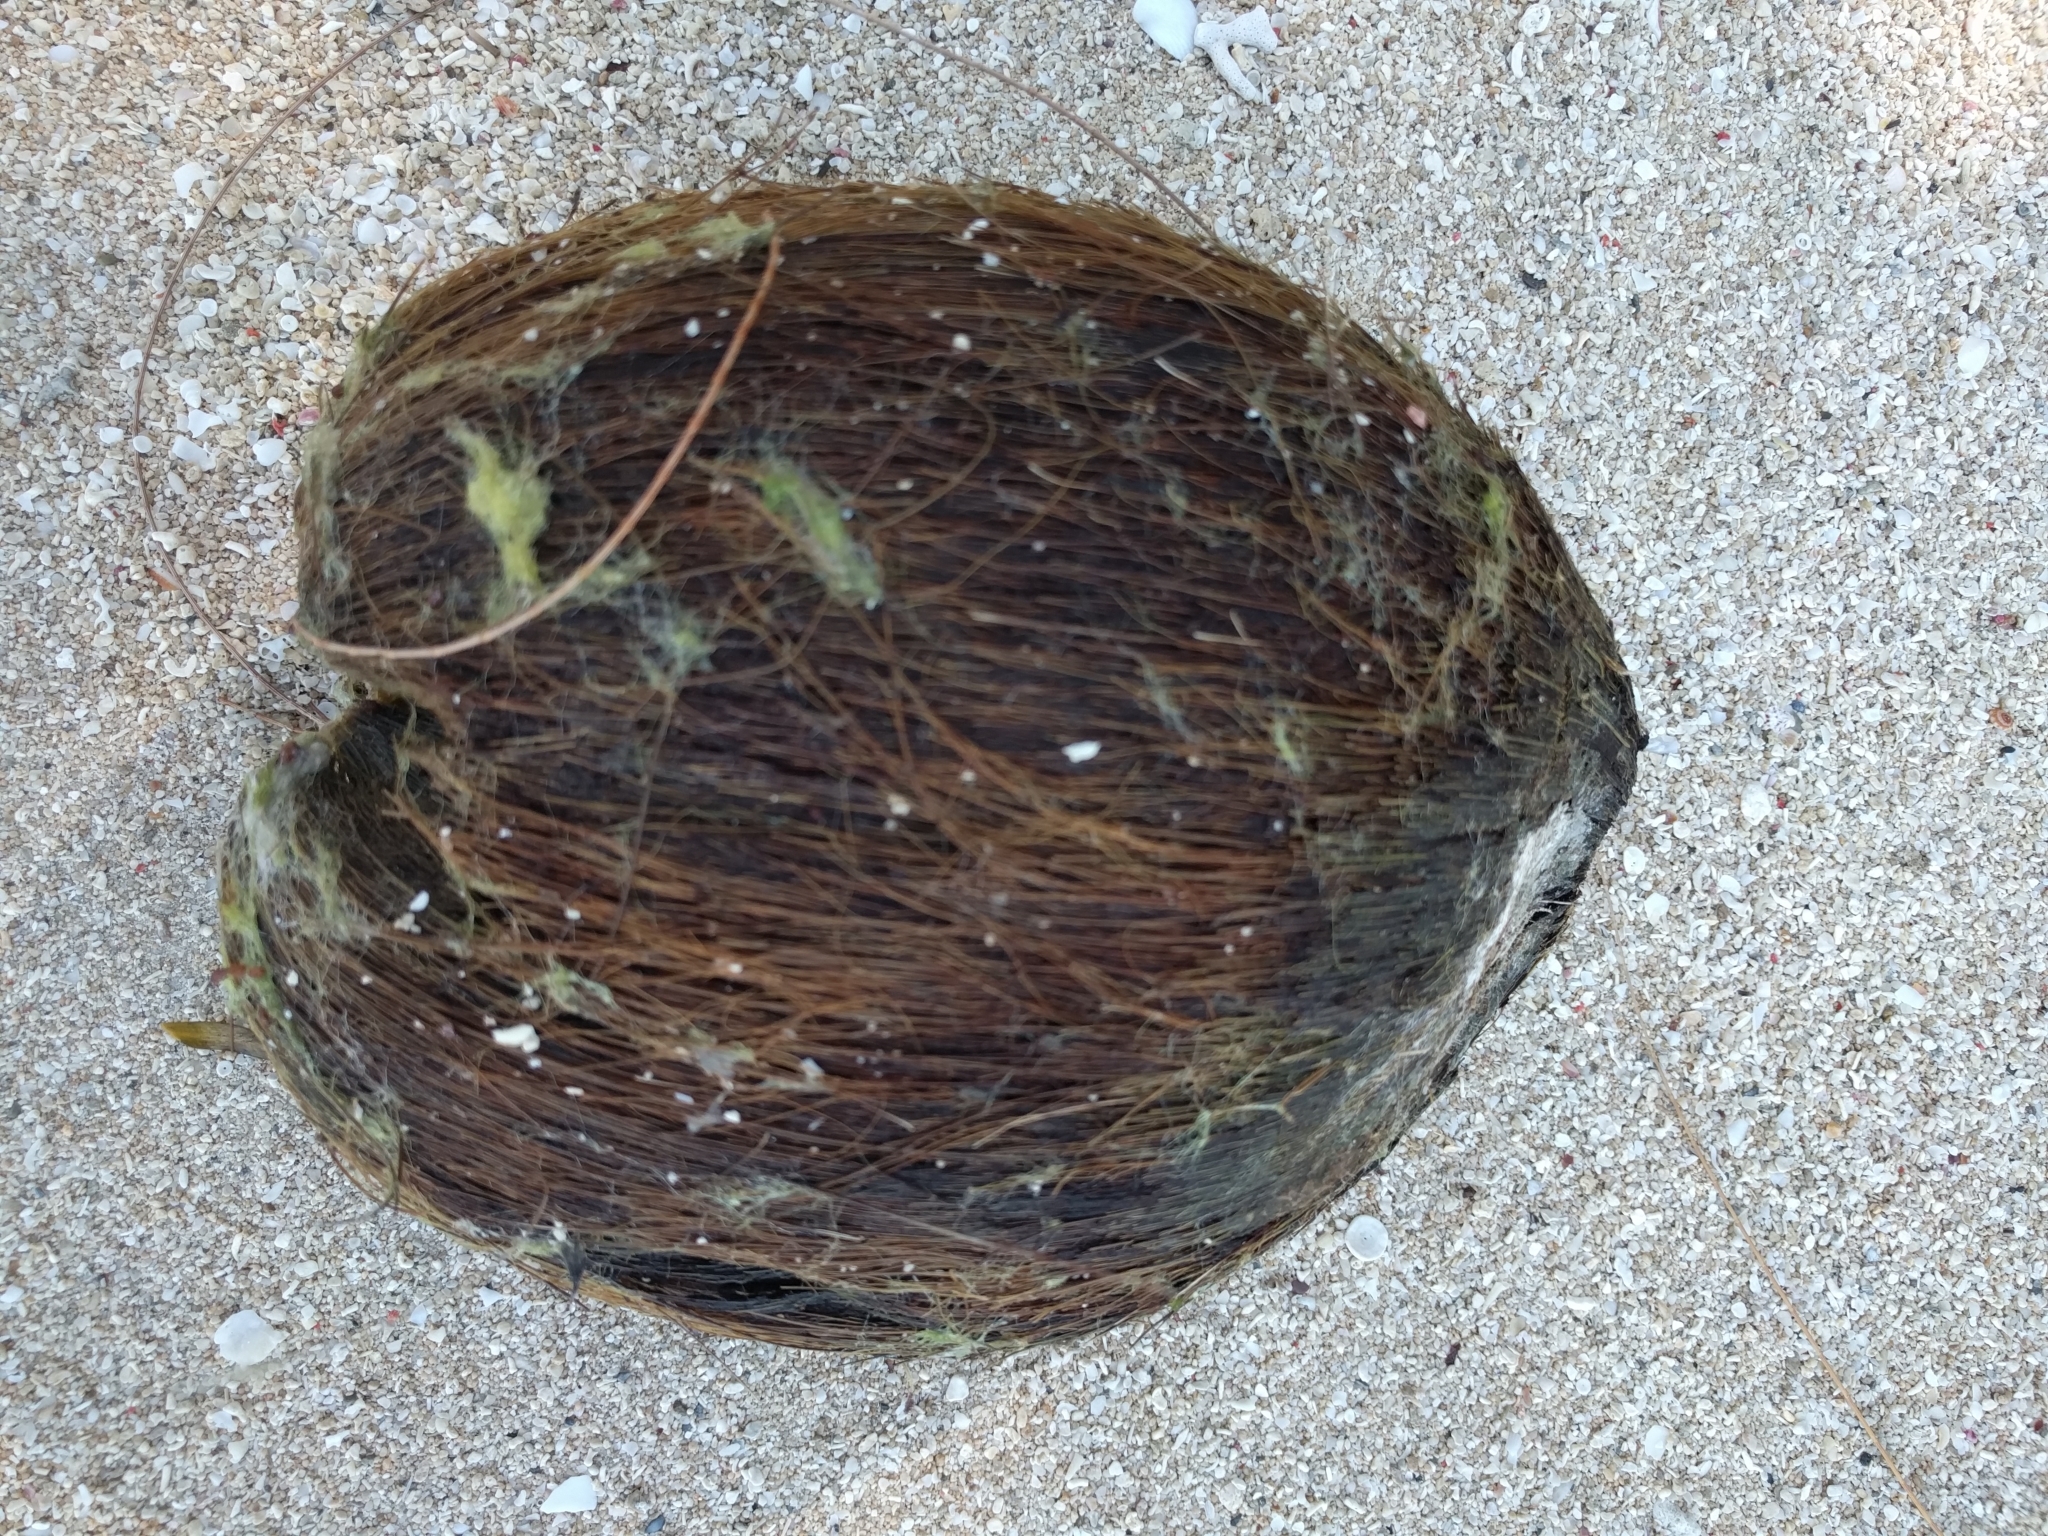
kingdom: Plantae
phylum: Tracheophyta
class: Liliopsida
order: Arecales
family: Arecaceae
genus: Cocos
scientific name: Cocos nucifera
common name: Coconut palm
